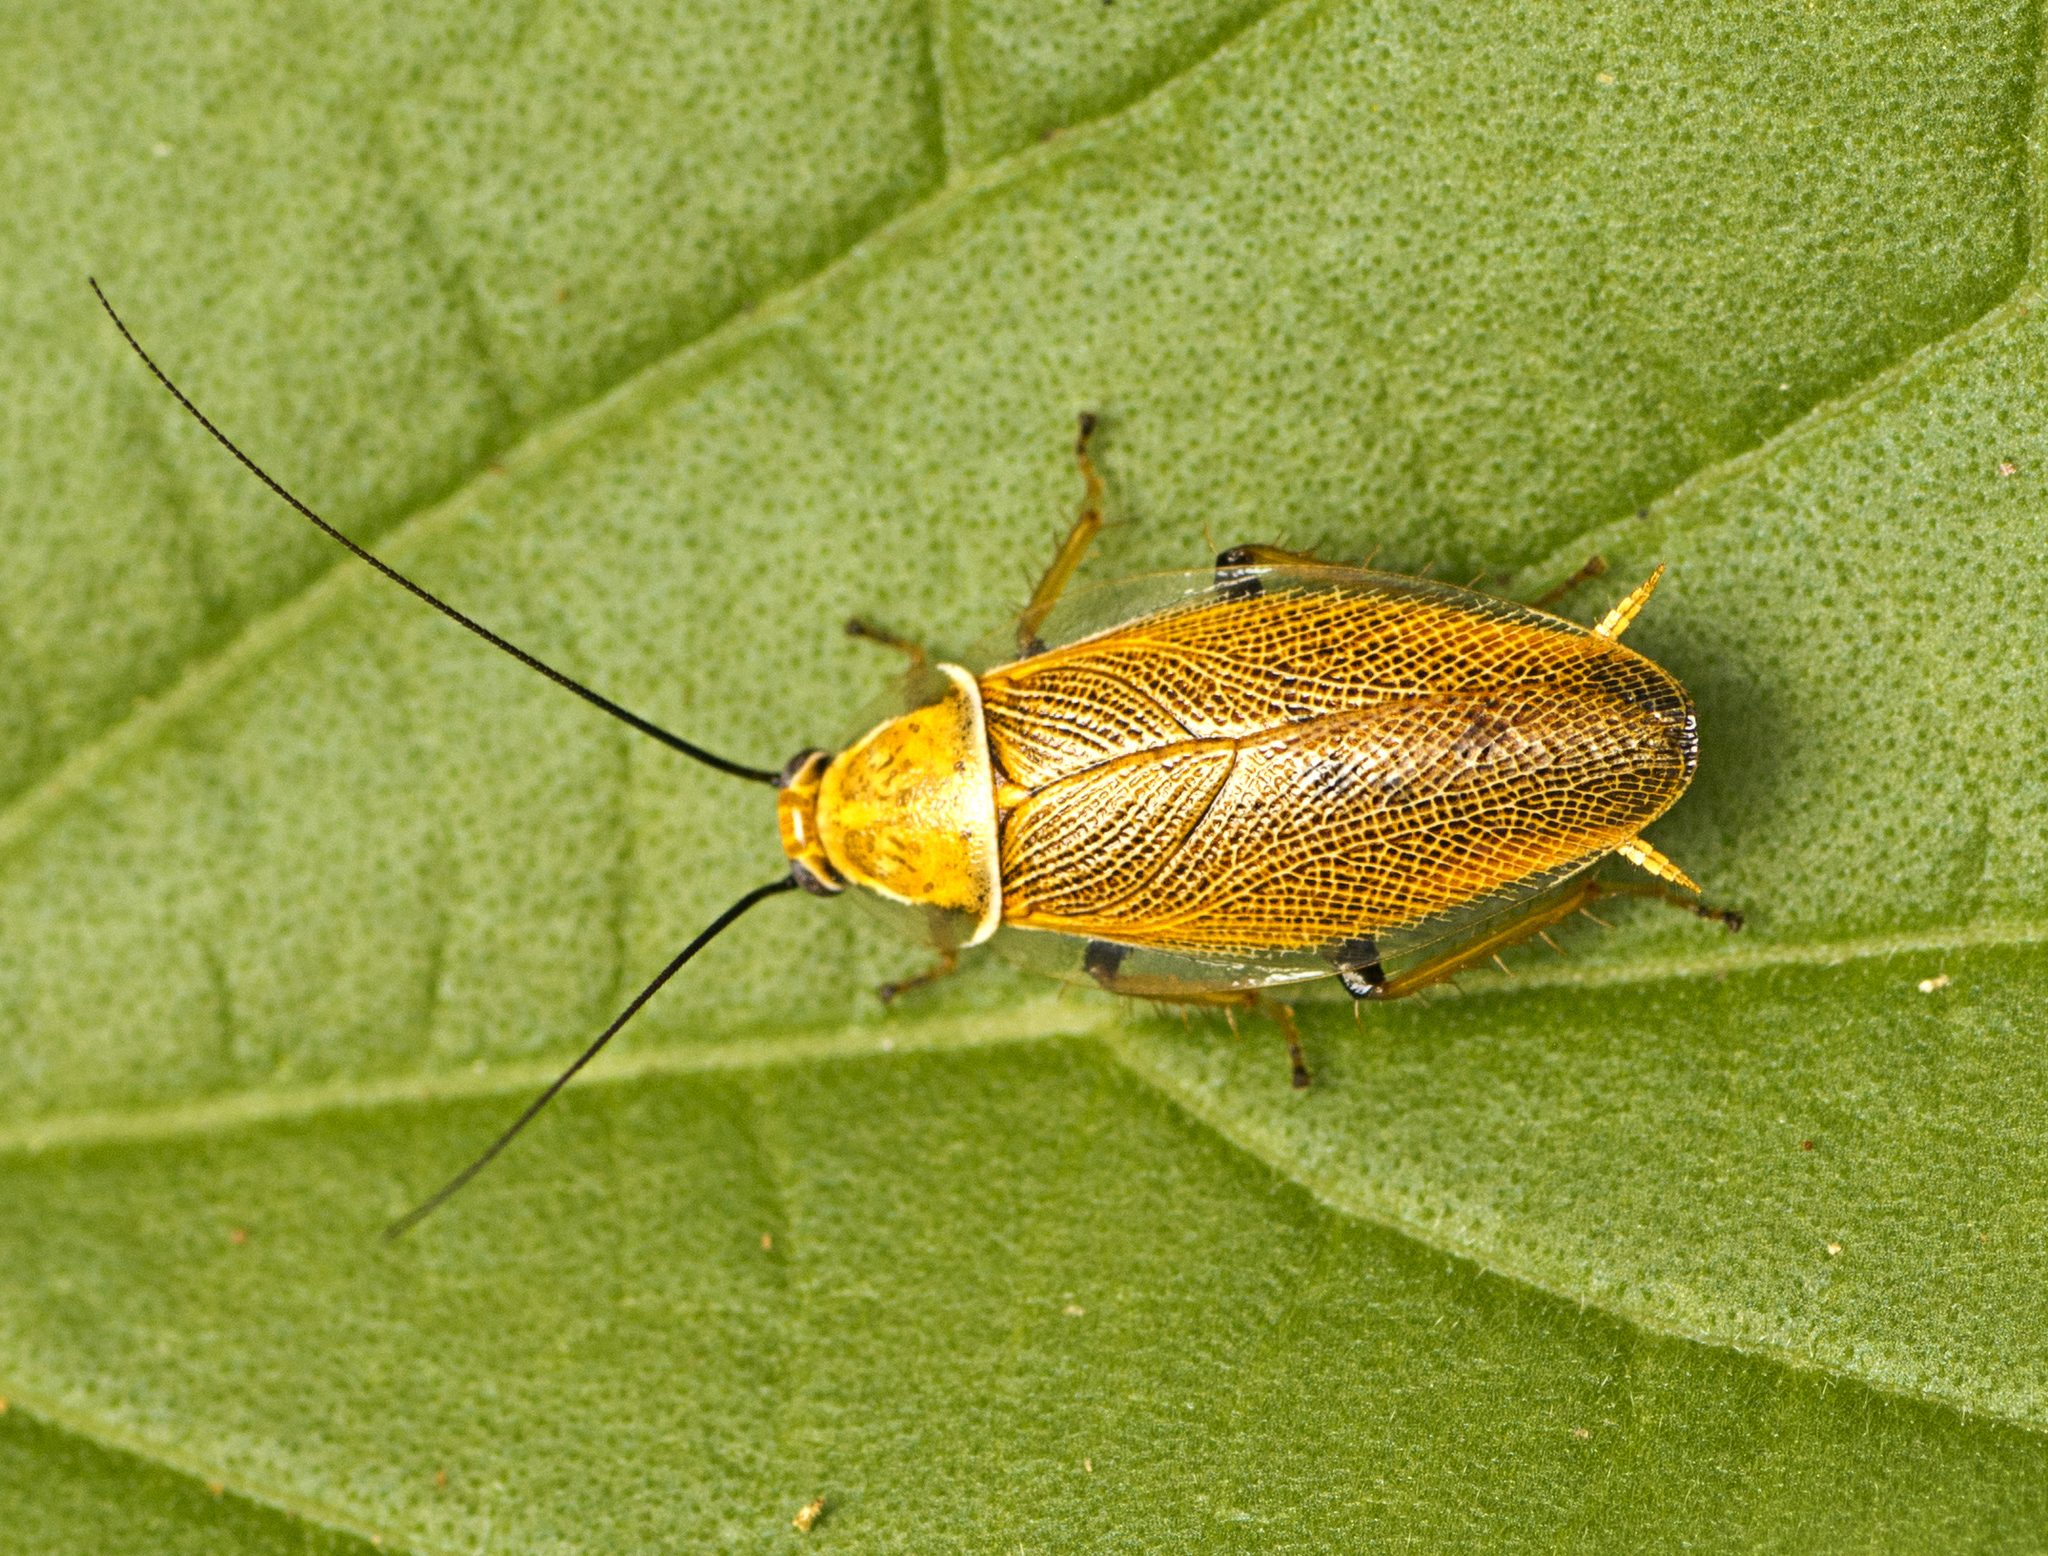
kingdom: Animalia
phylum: Arthropoda
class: Insecta
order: Blattodea
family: Ectobiidae
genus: Ellipsidion
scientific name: Ellipsidion humerale
